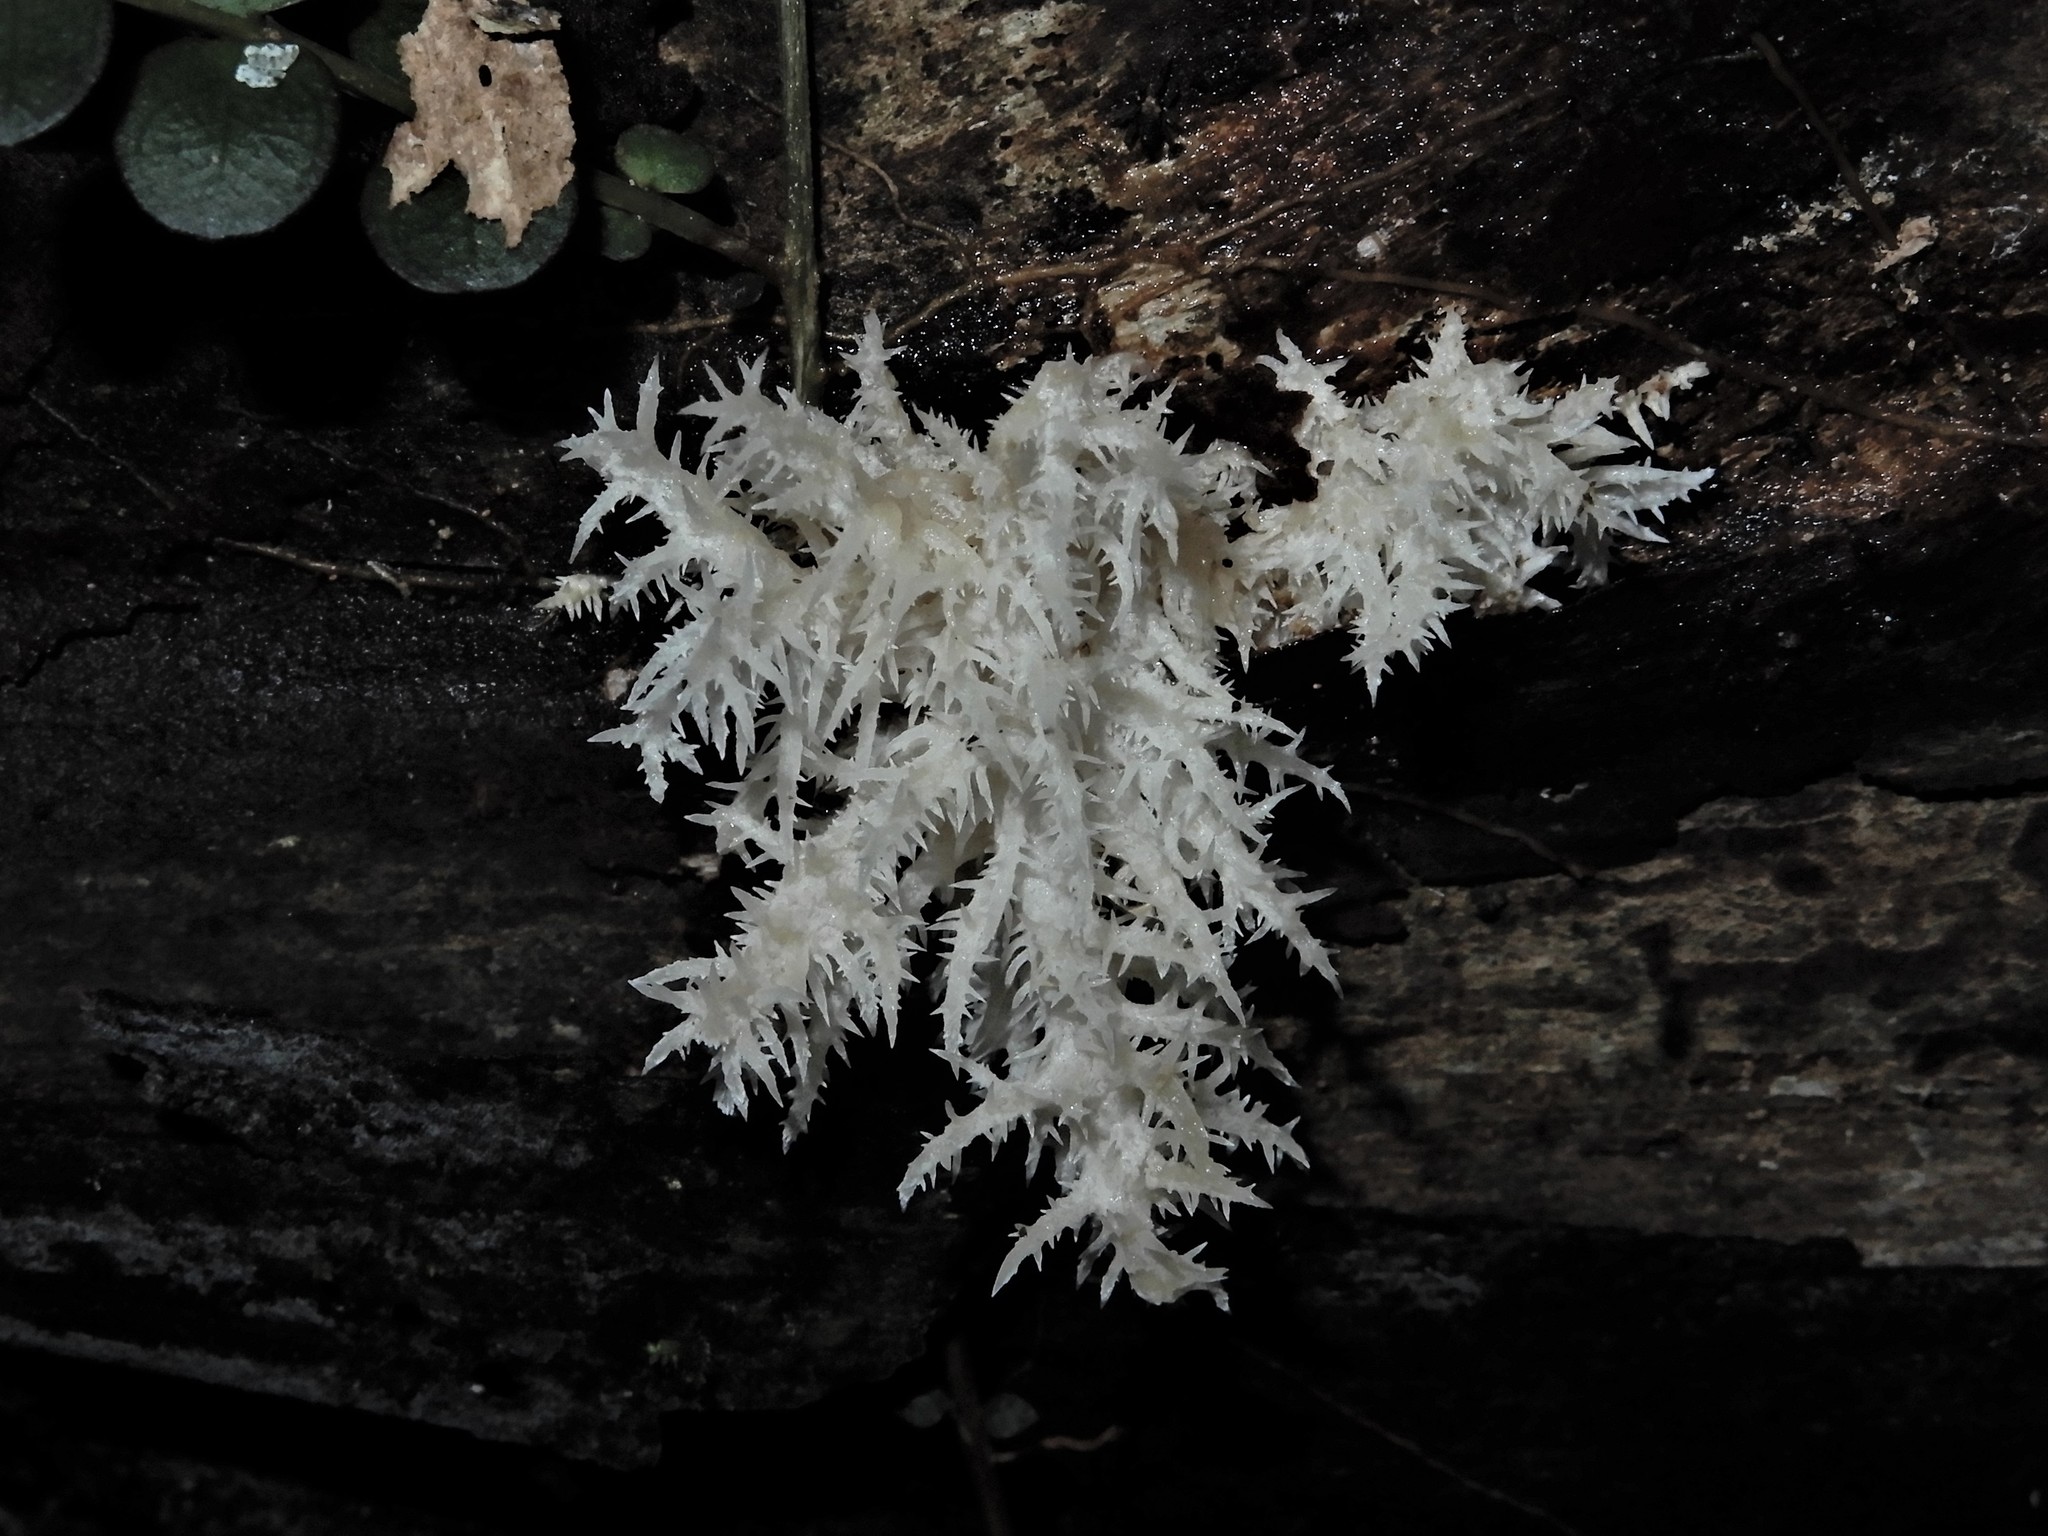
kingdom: Fungi
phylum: Basidiomycota
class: Agaricomycetes
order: Russulales
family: Hericiaceae
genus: Hericium
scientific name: Hericium novae-zealandiae
